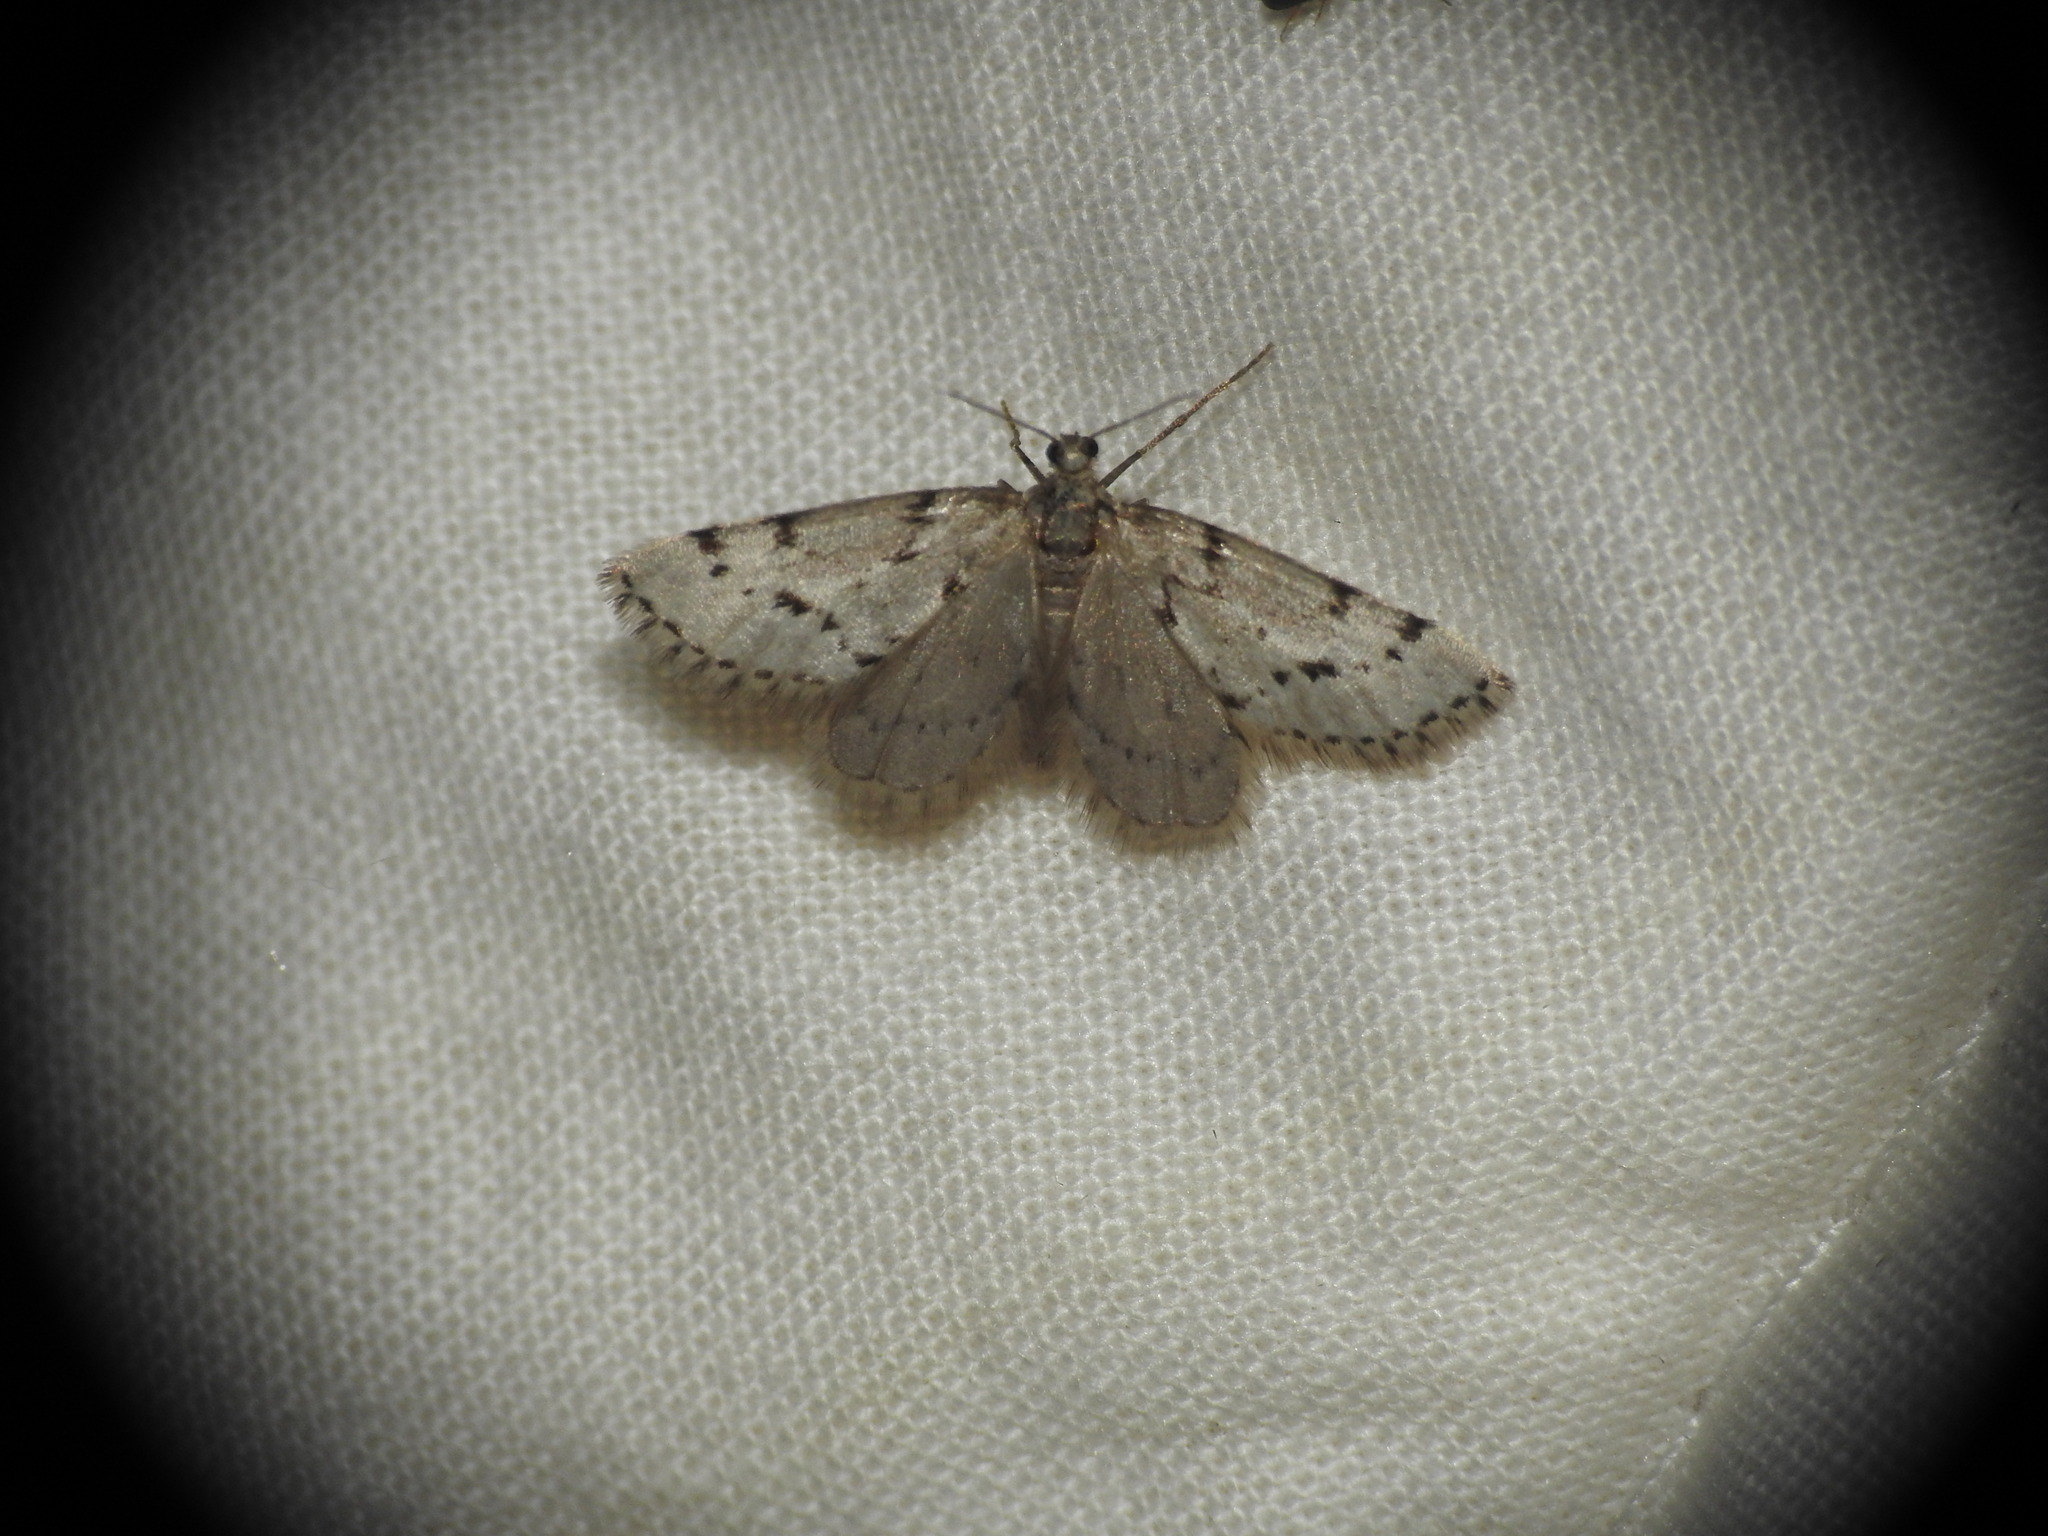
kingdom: Animalia
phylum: Arthropoda
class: Insecta
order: Lepidoptera
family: Geometridae
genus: Tephronia
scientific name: Tephronia oranaria
